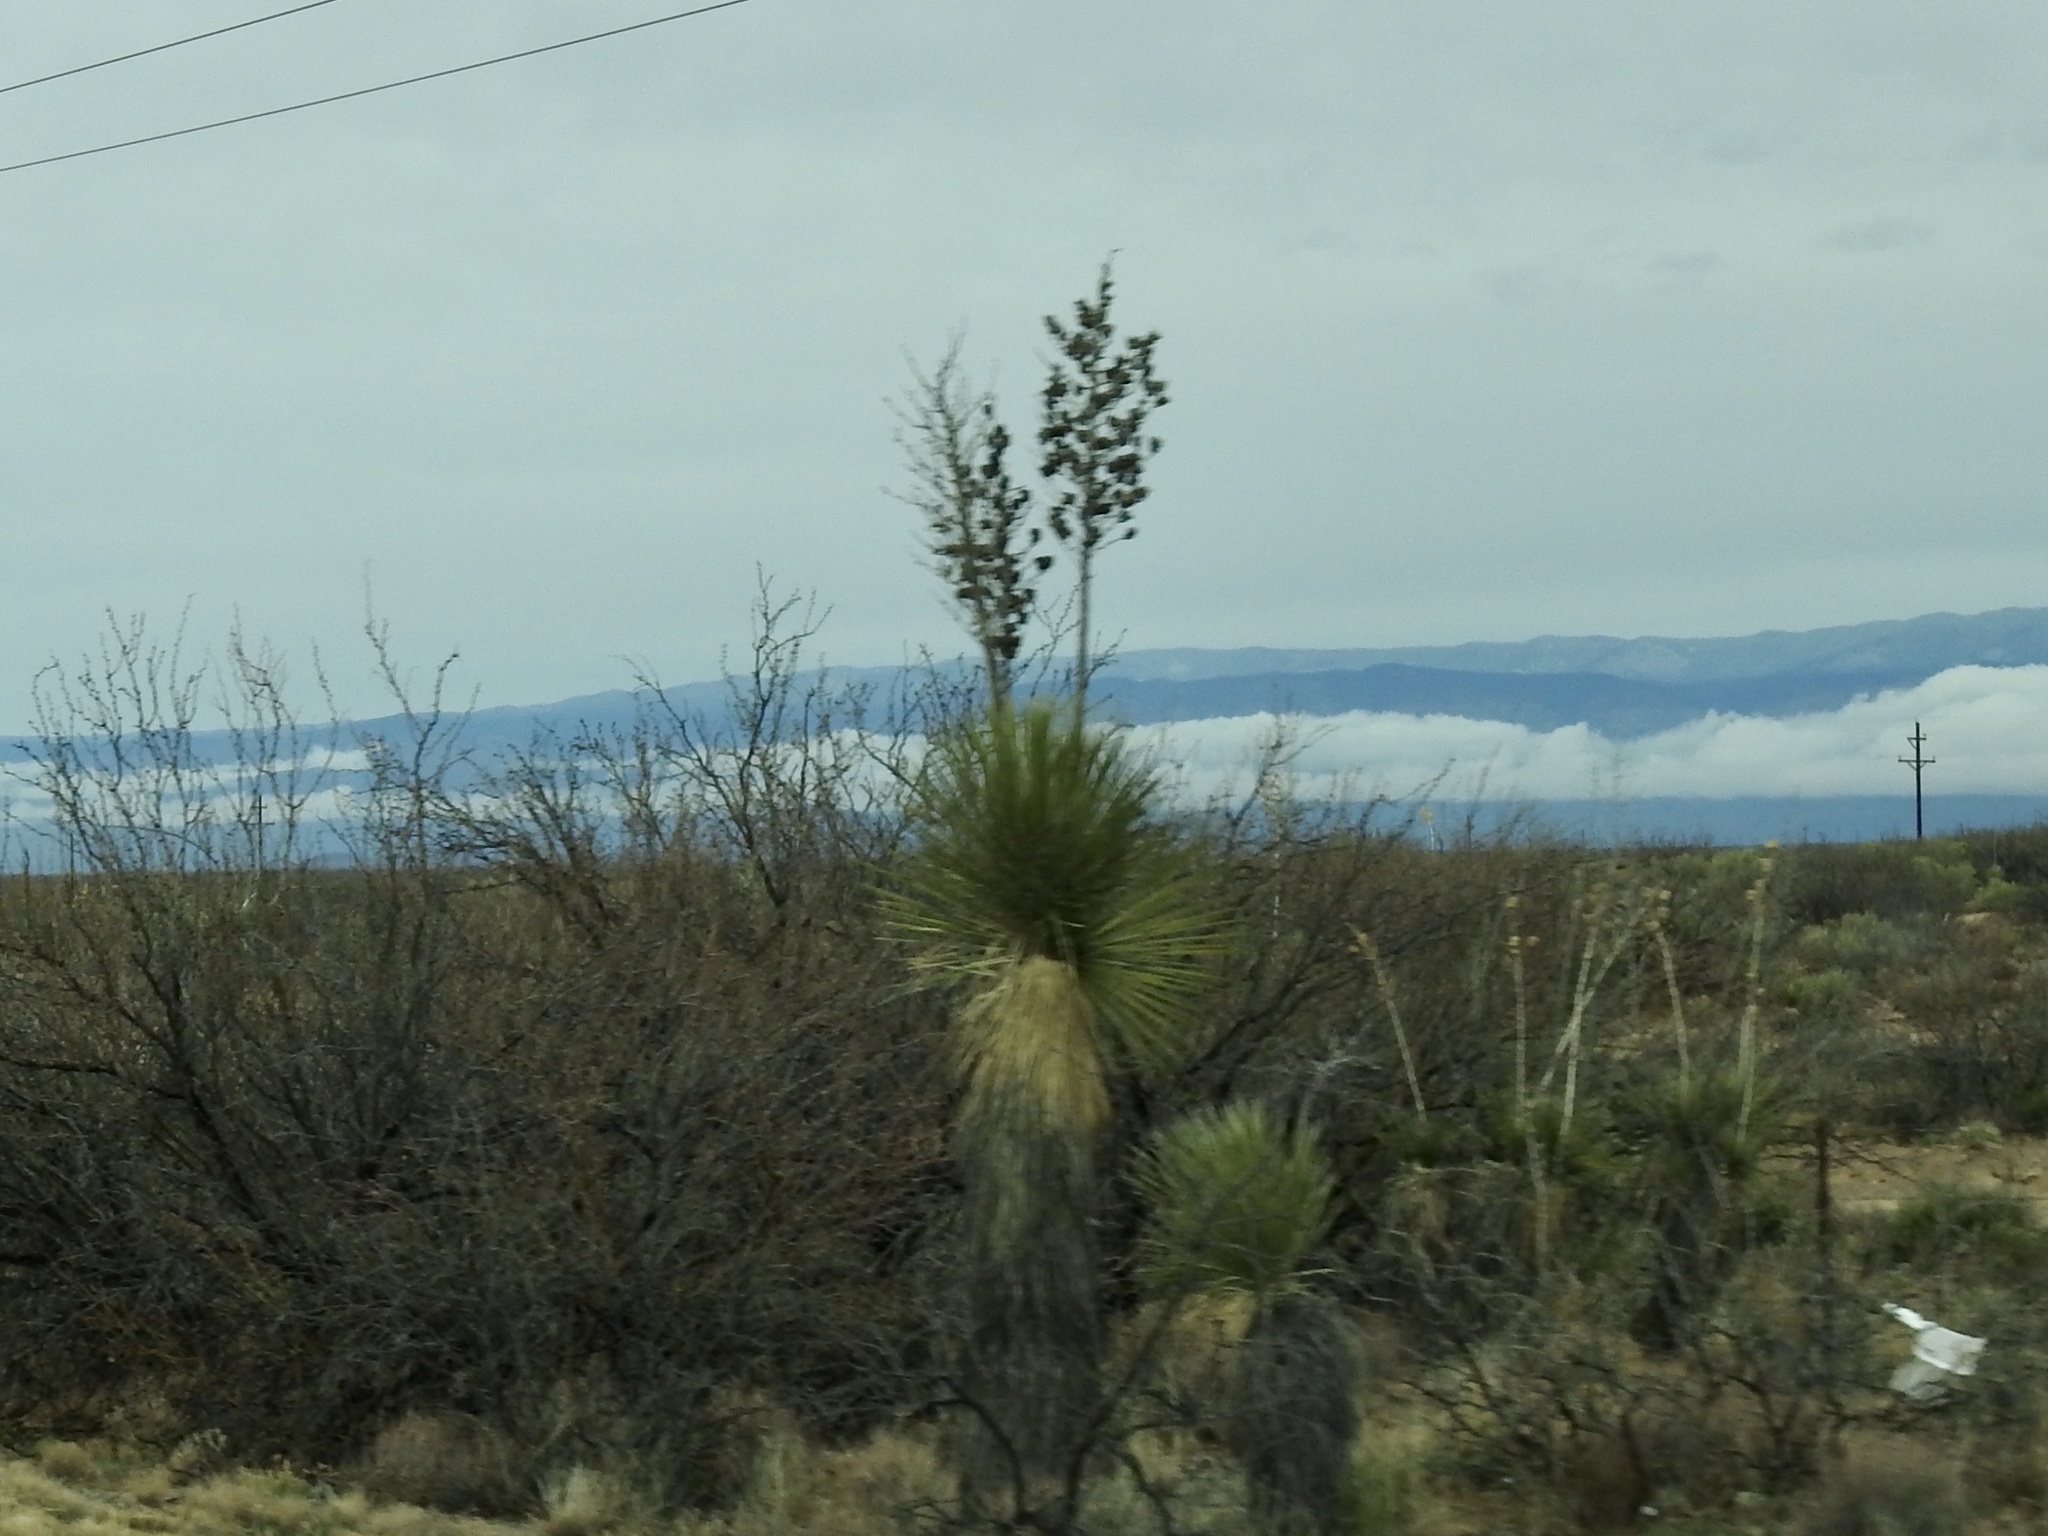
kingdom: Plantae
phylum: Tracheophyta
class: Liliopsida
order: Asparagales
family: Asparagaceae
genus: Yucca
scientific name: Yucca elata
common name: Palmella
